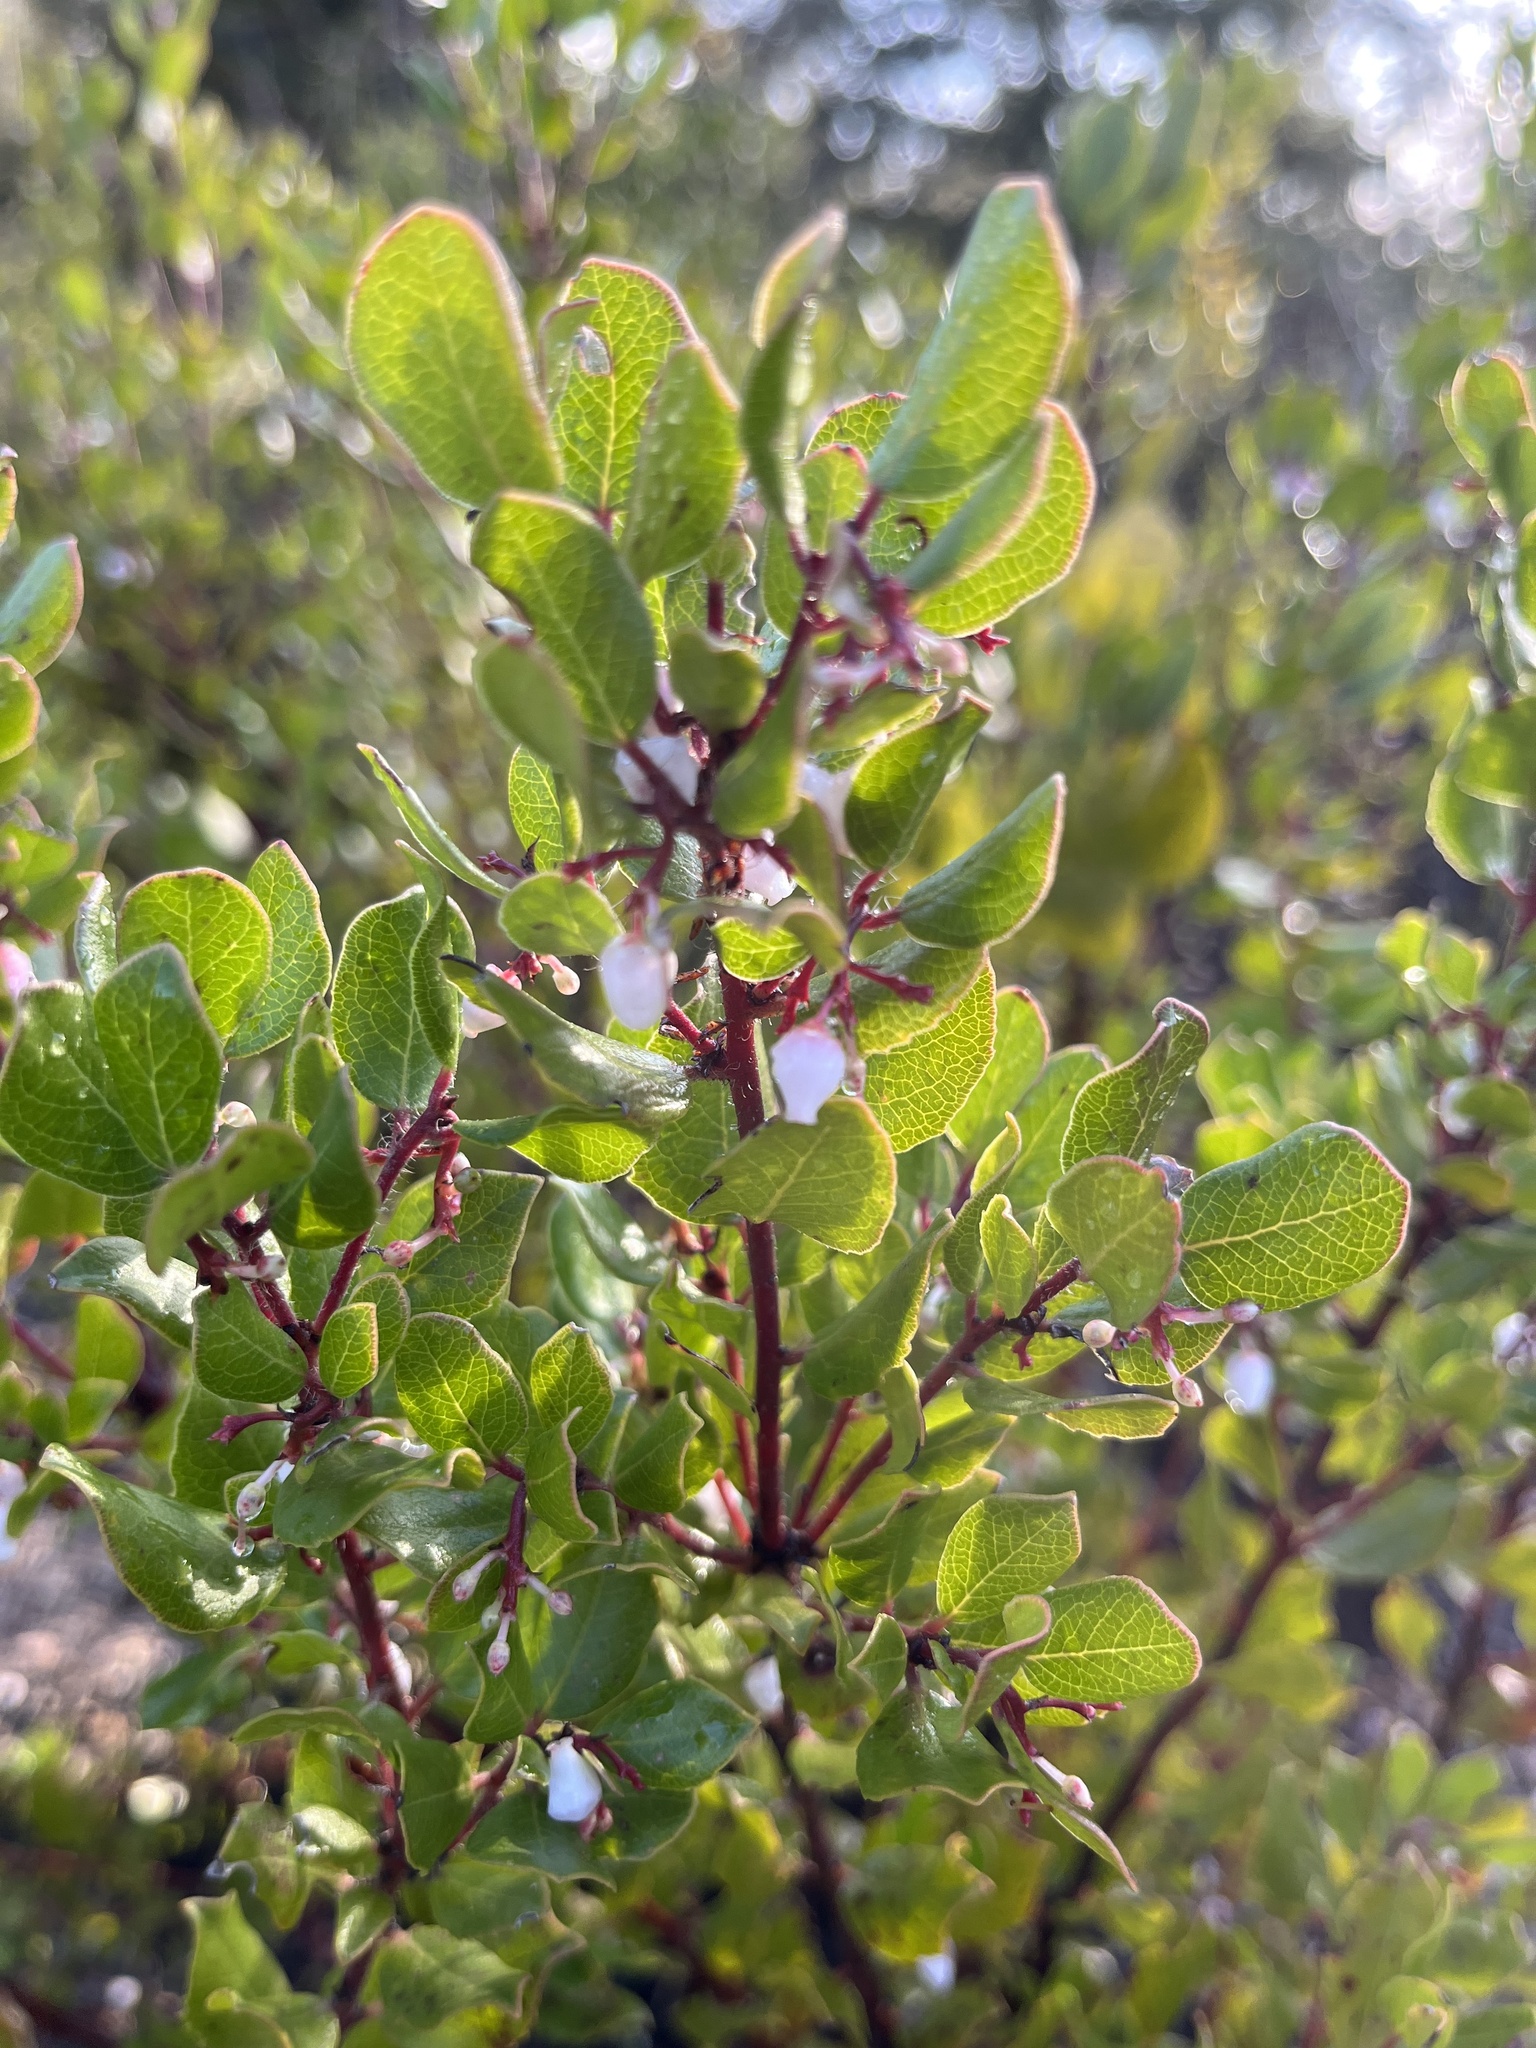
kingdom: Plantae
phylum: Tracheophyta
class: Magnoliopsida
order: Ericales
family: Ericaceae
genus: Arctostaphylos
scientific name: Arctostaphylos nummularia
